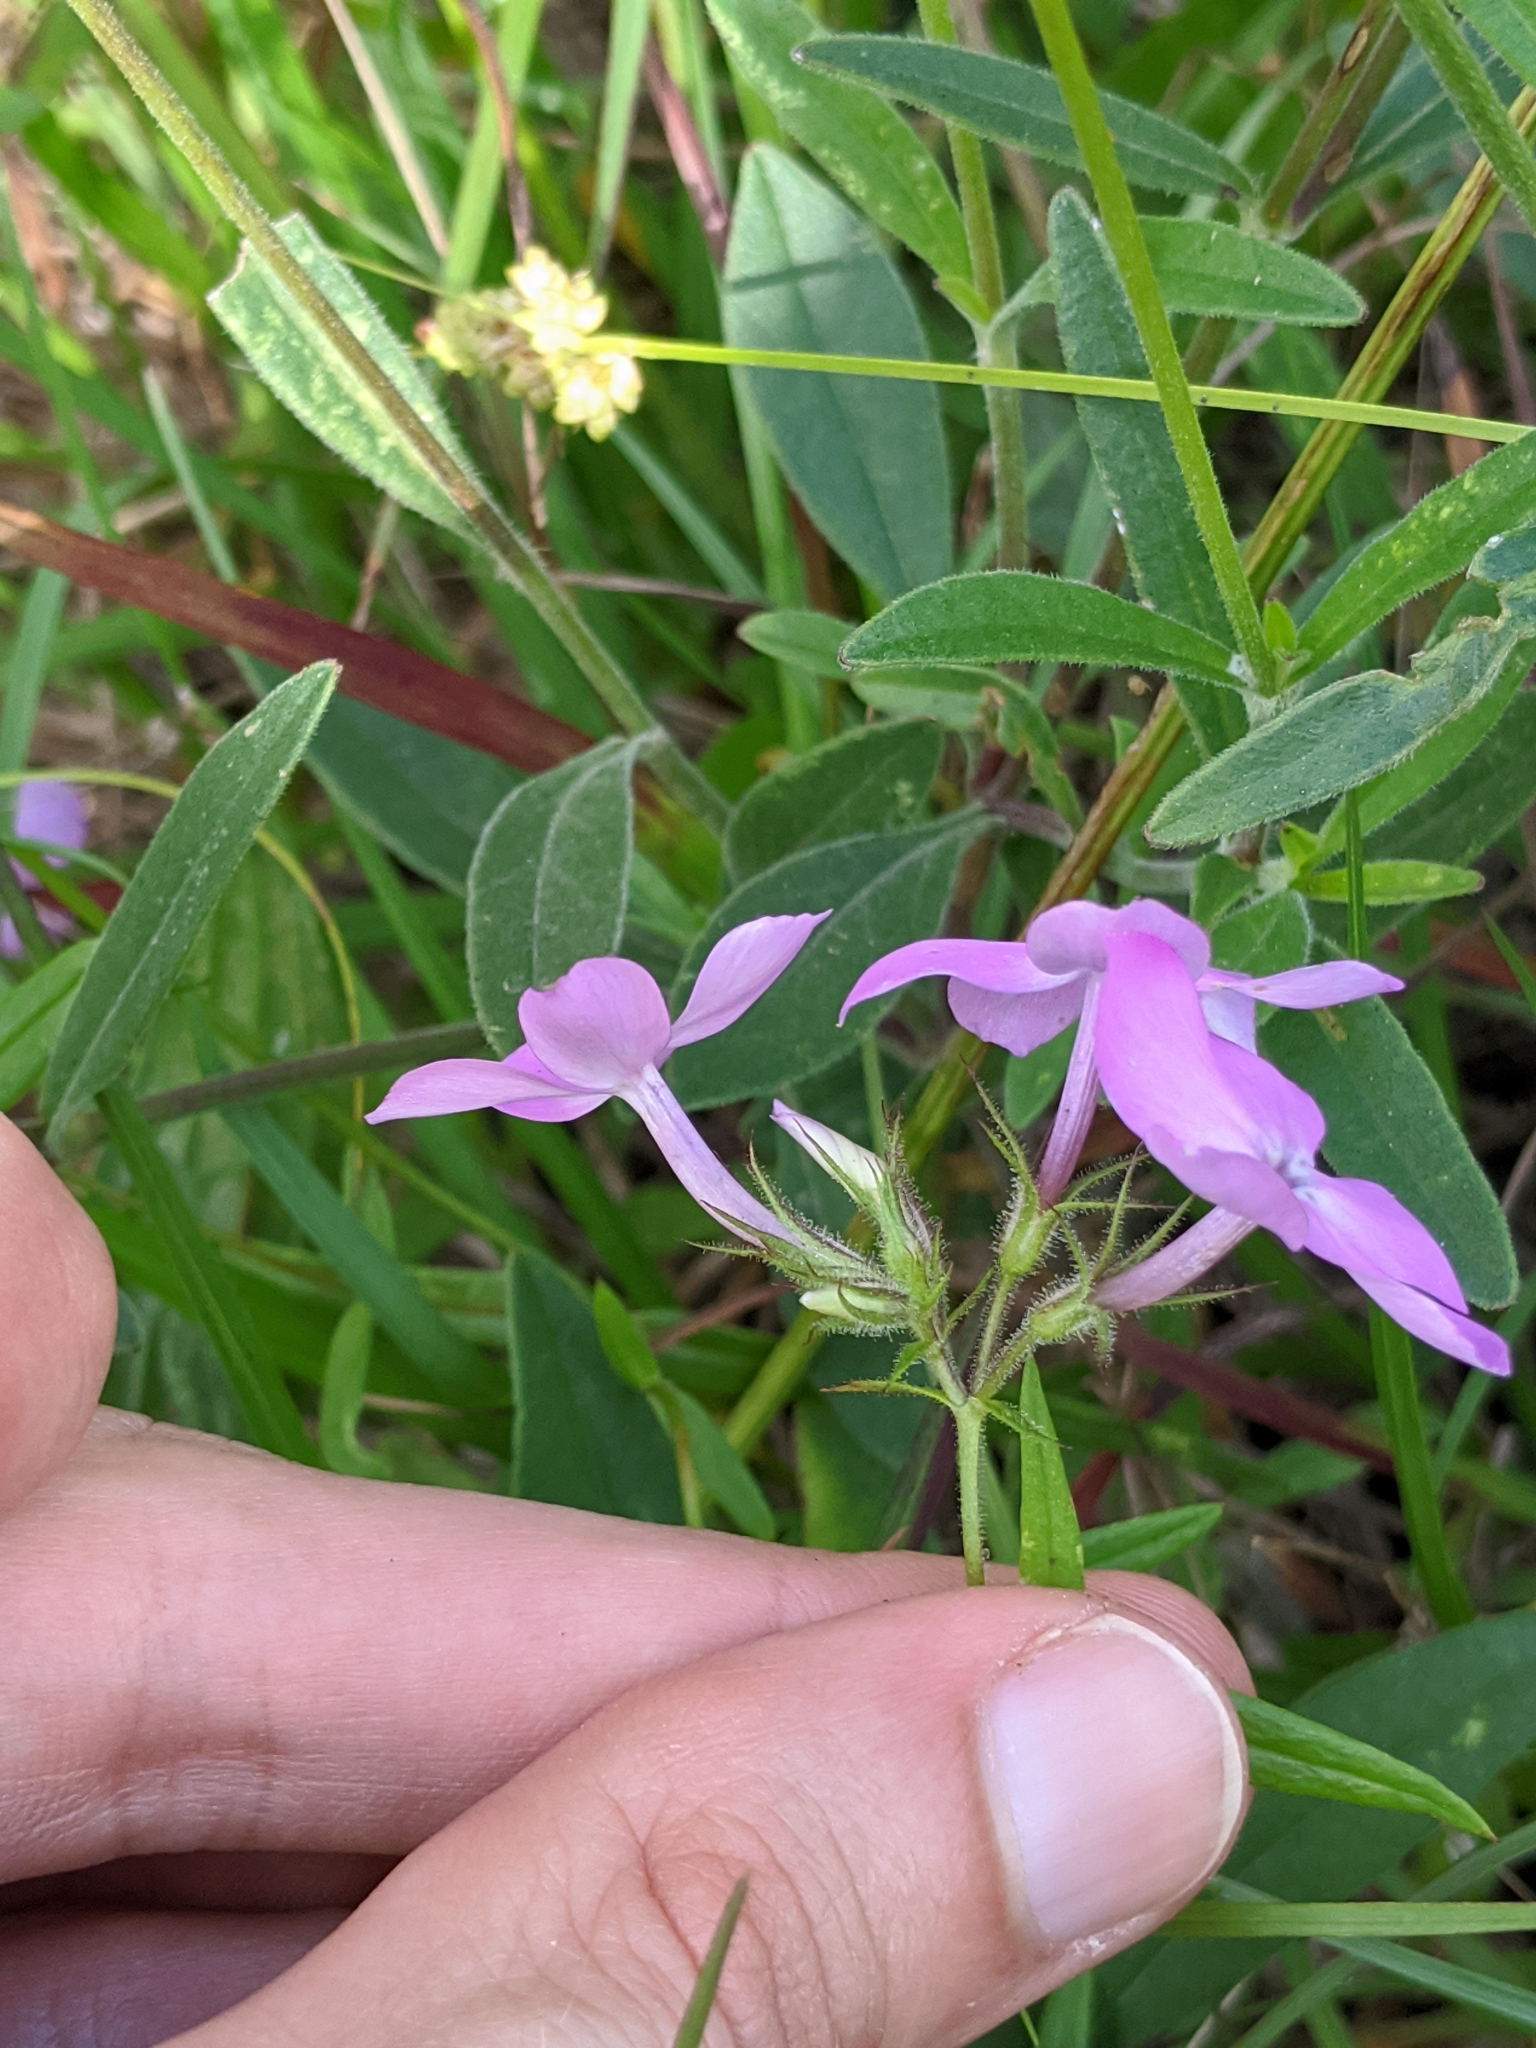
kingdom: Plantae
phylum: Tracheophyta
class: Magnoliopsida
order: Ericales
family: Polemoniaceae
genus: Phlox
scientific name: Phlox pilosa
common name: Prairie phlox
